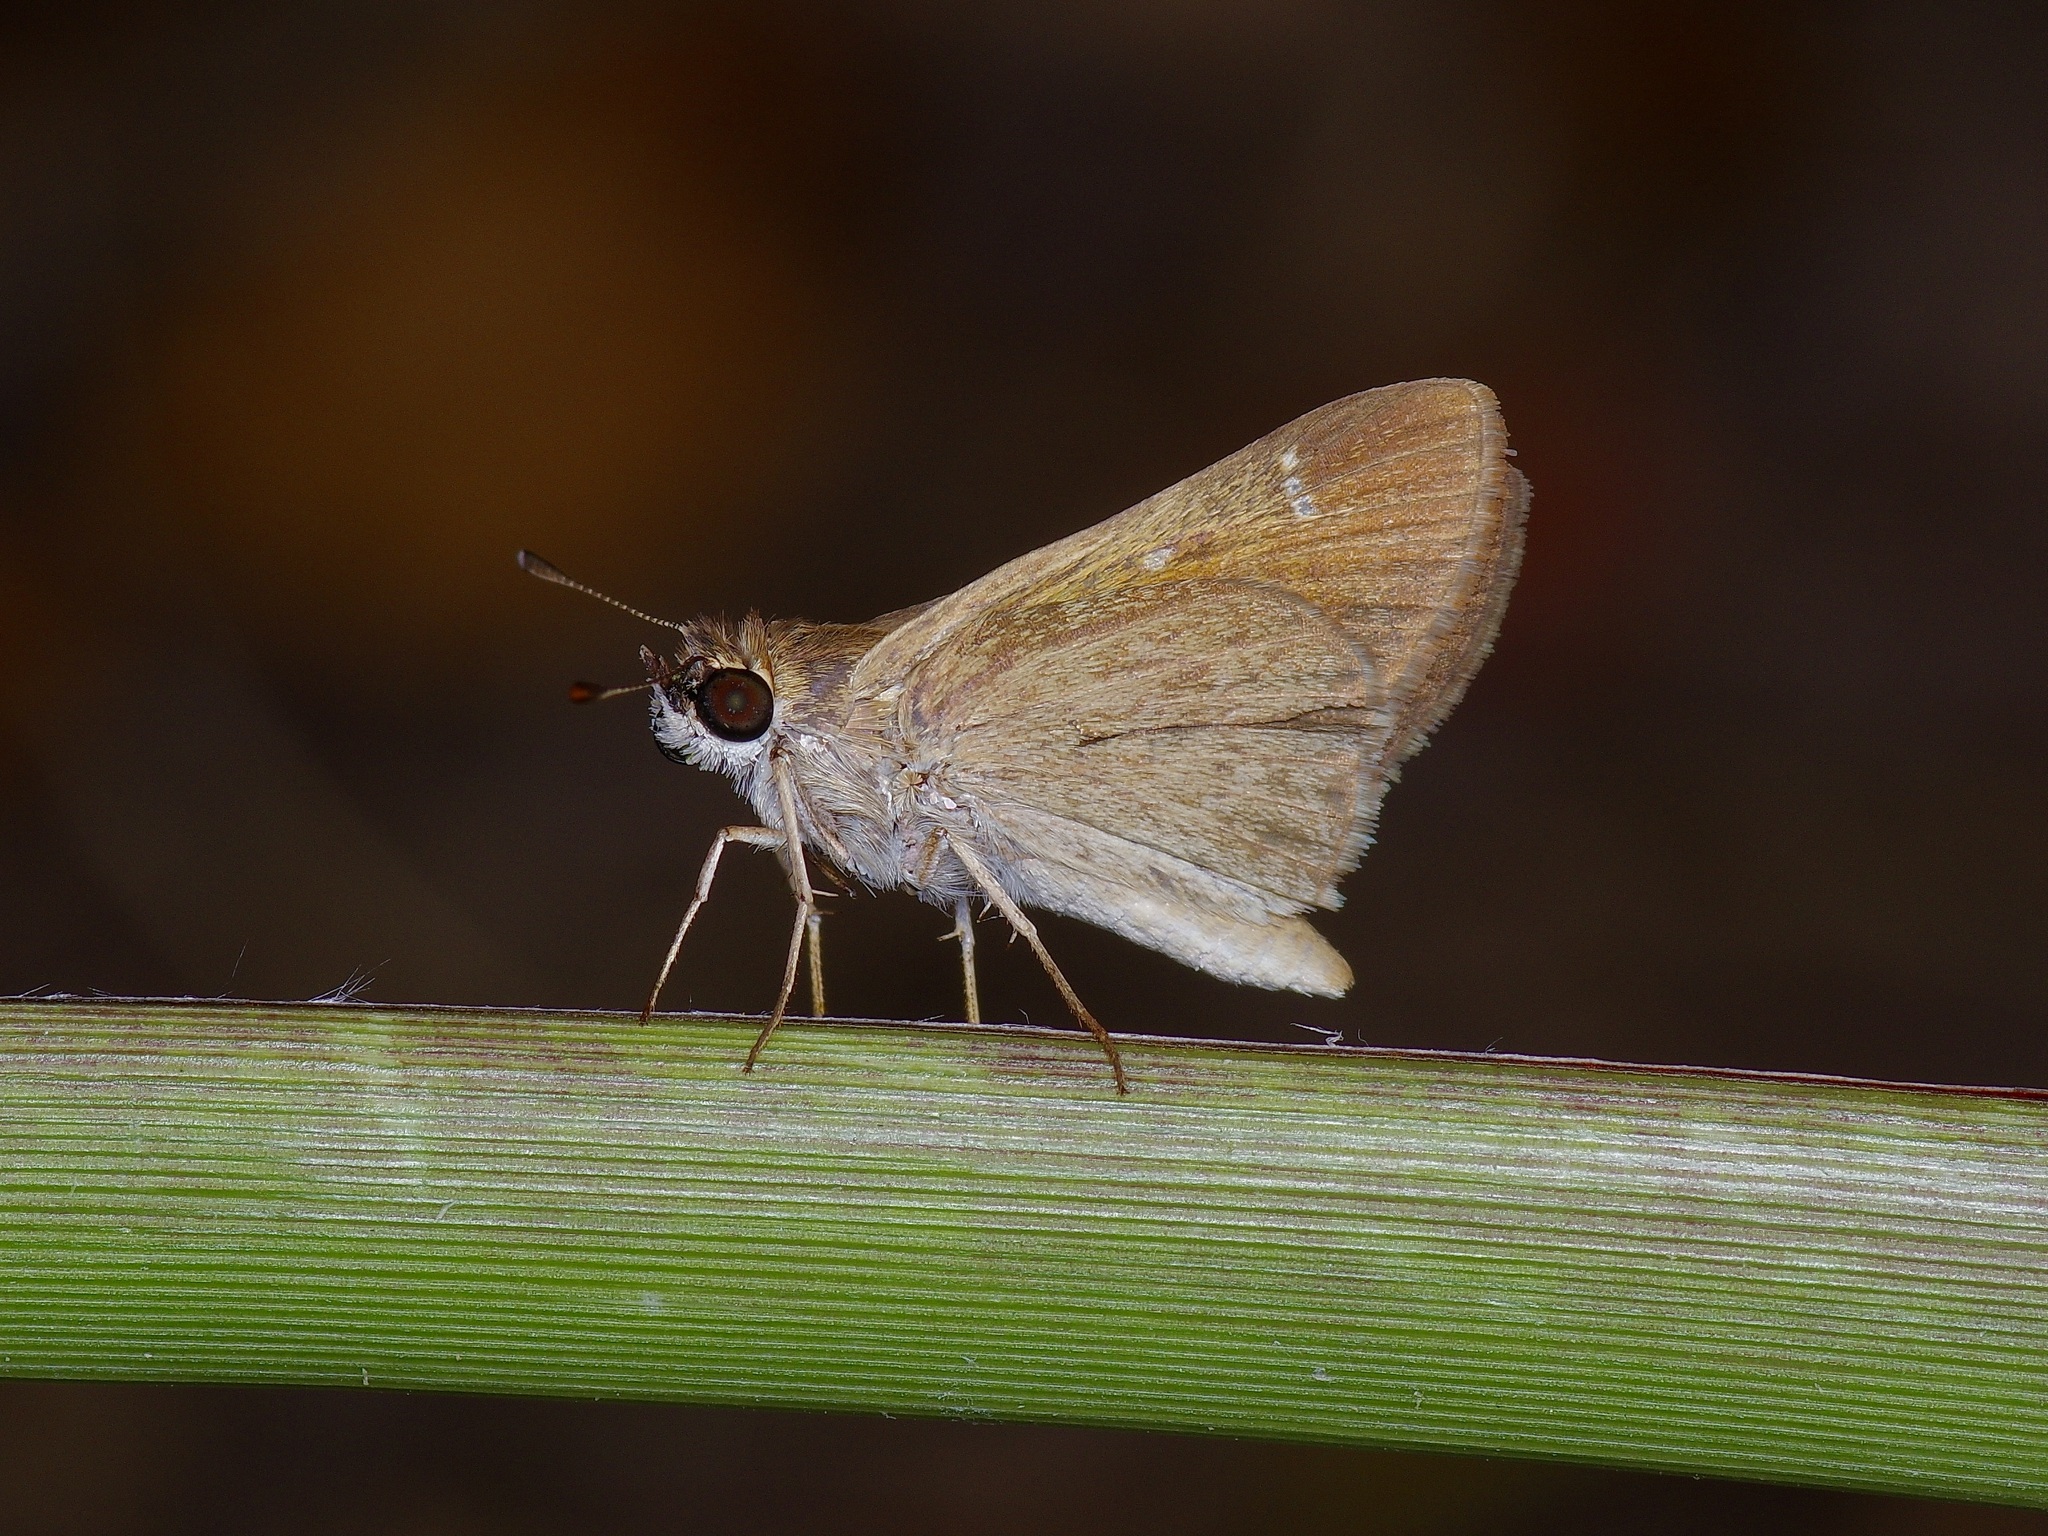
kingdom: Animalia
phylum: Arthropoda
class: Insecta
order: Lepidoptera
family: Hesperiidae
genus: Lerodea
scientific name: Lerodea eufala
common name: Eufala skipper
